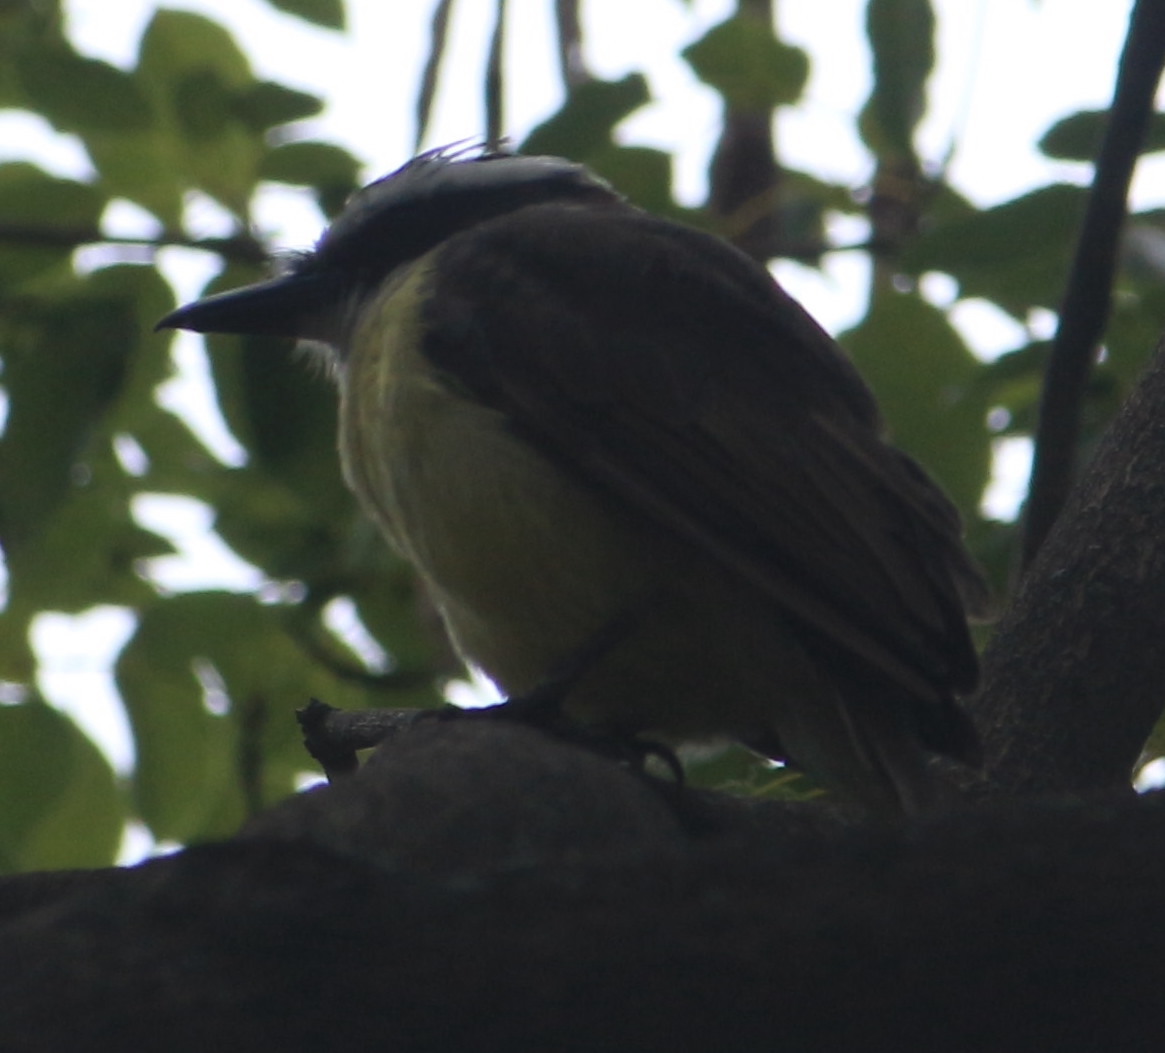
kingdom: Animalia
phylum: Chordata
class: Aves
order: Passeriformes
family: Tyrannidae
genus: Pitangus
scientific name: Pitangus sulphuratus
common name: Great kiskadee
